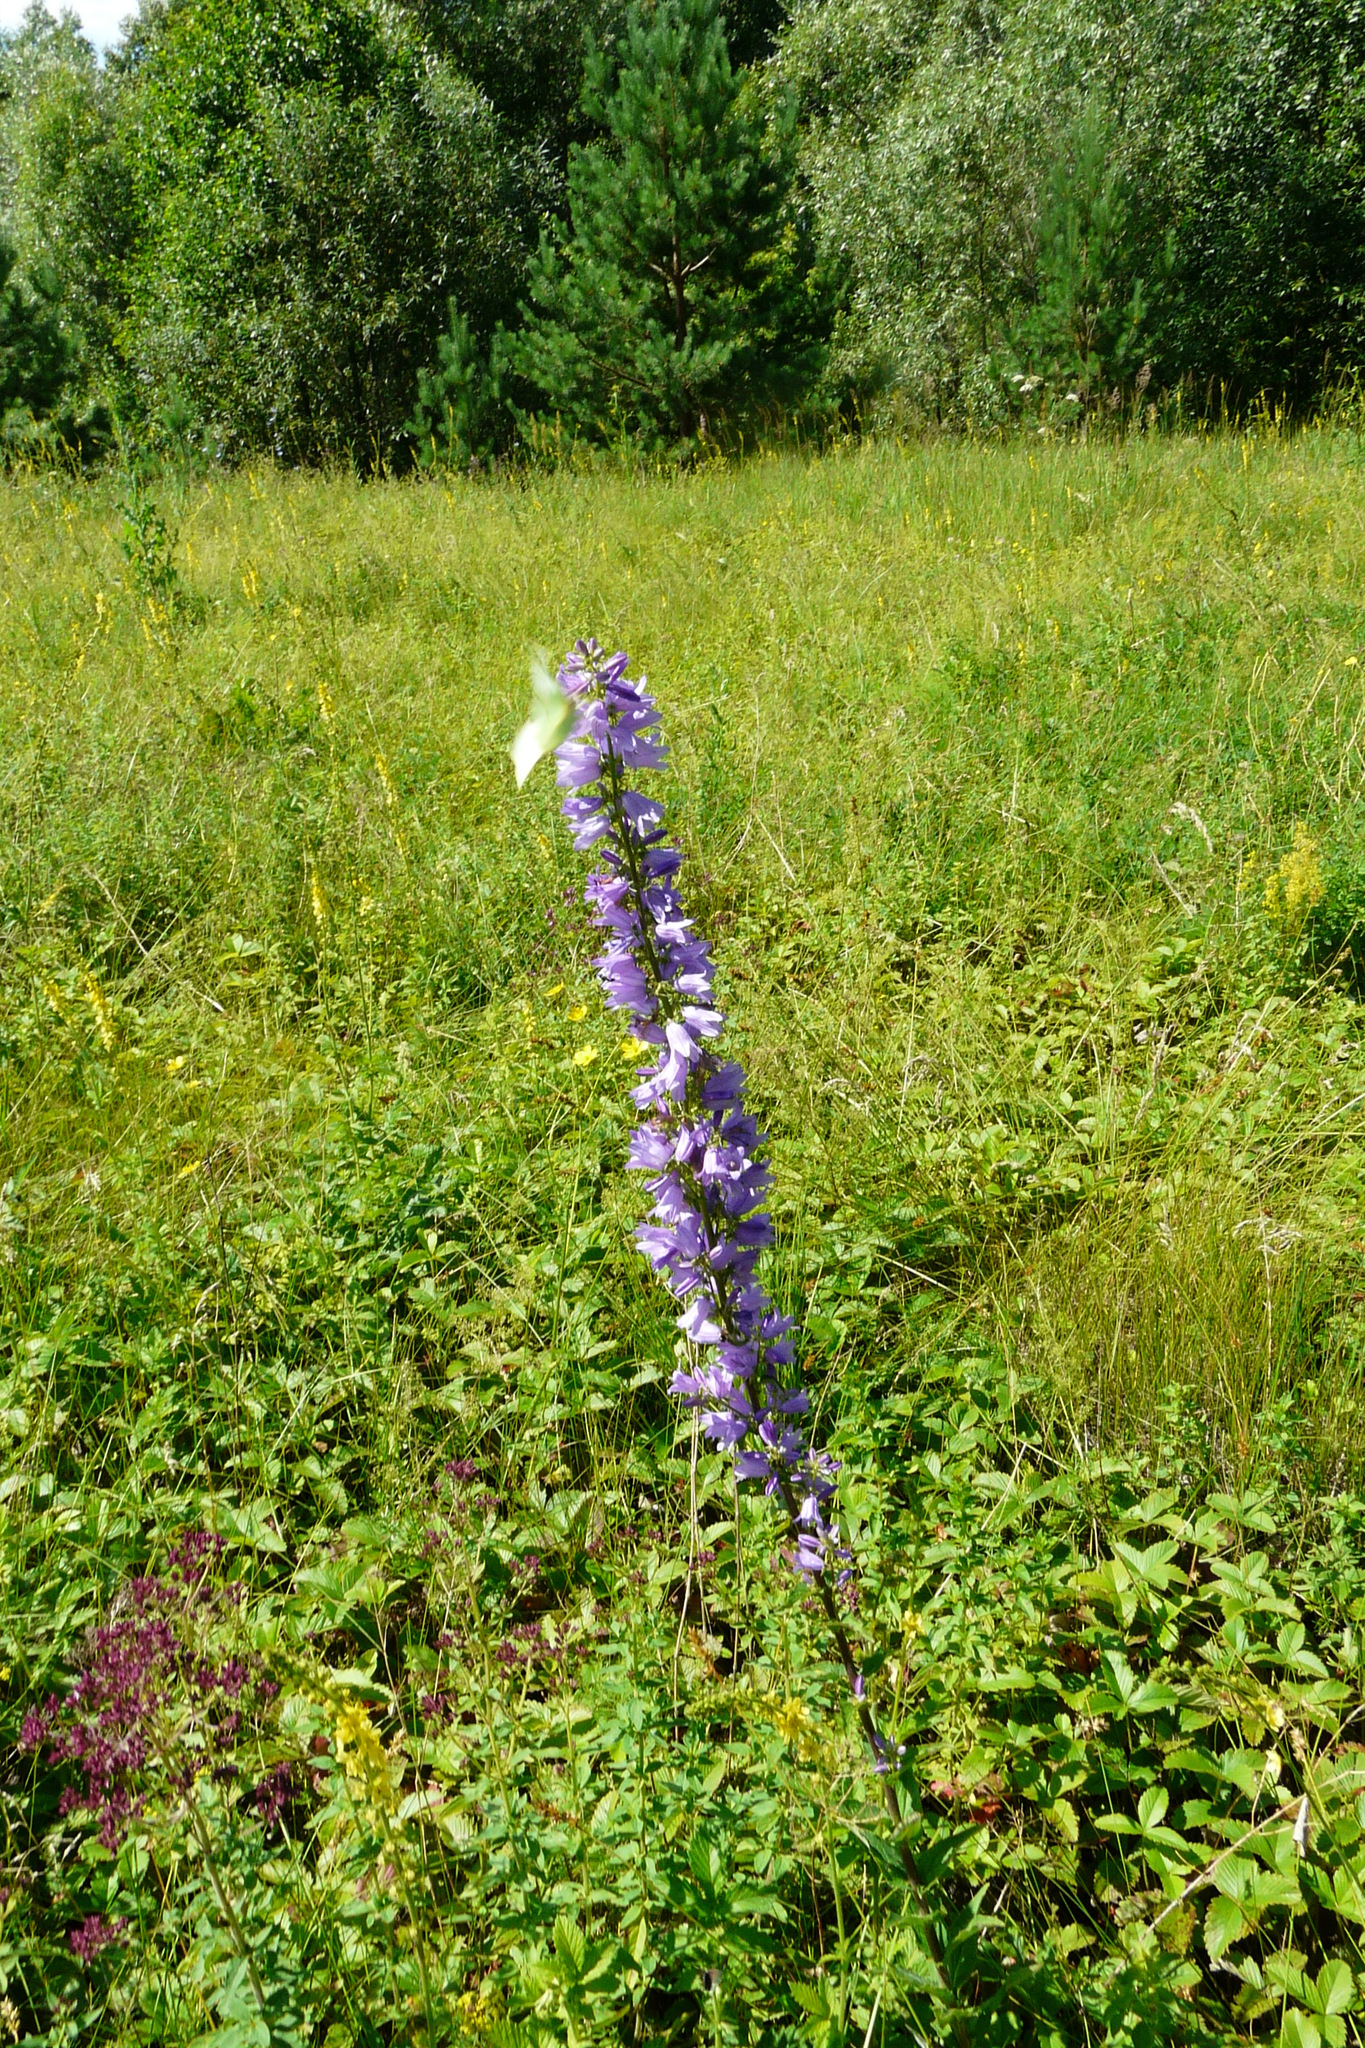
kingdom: Plantae
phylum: Tracheophyta
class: Magnoliopsida
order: Asterales
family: Campanulaceae
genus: Campanula
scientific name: Campanula bononiensis
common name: Pale bellflower
